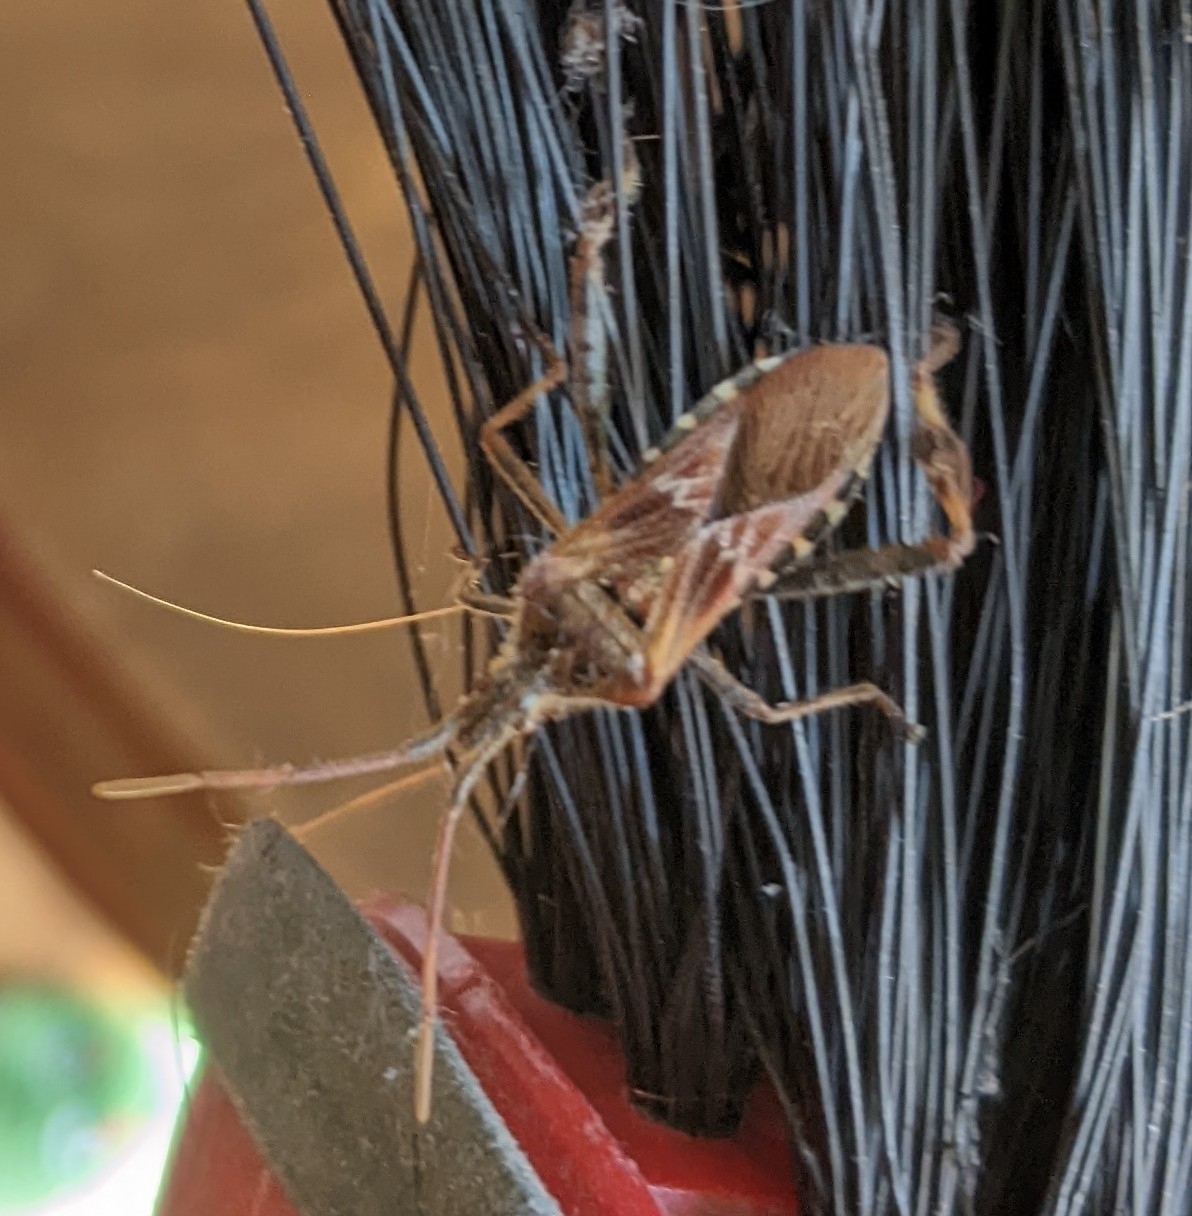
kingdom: Animalia
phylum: Arthropoda
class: Insecta
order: Hemiptera
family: Coreidae
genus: Leptoglossus
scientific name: Leptoglossus occidentalis
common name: Western conifer-seed bug
